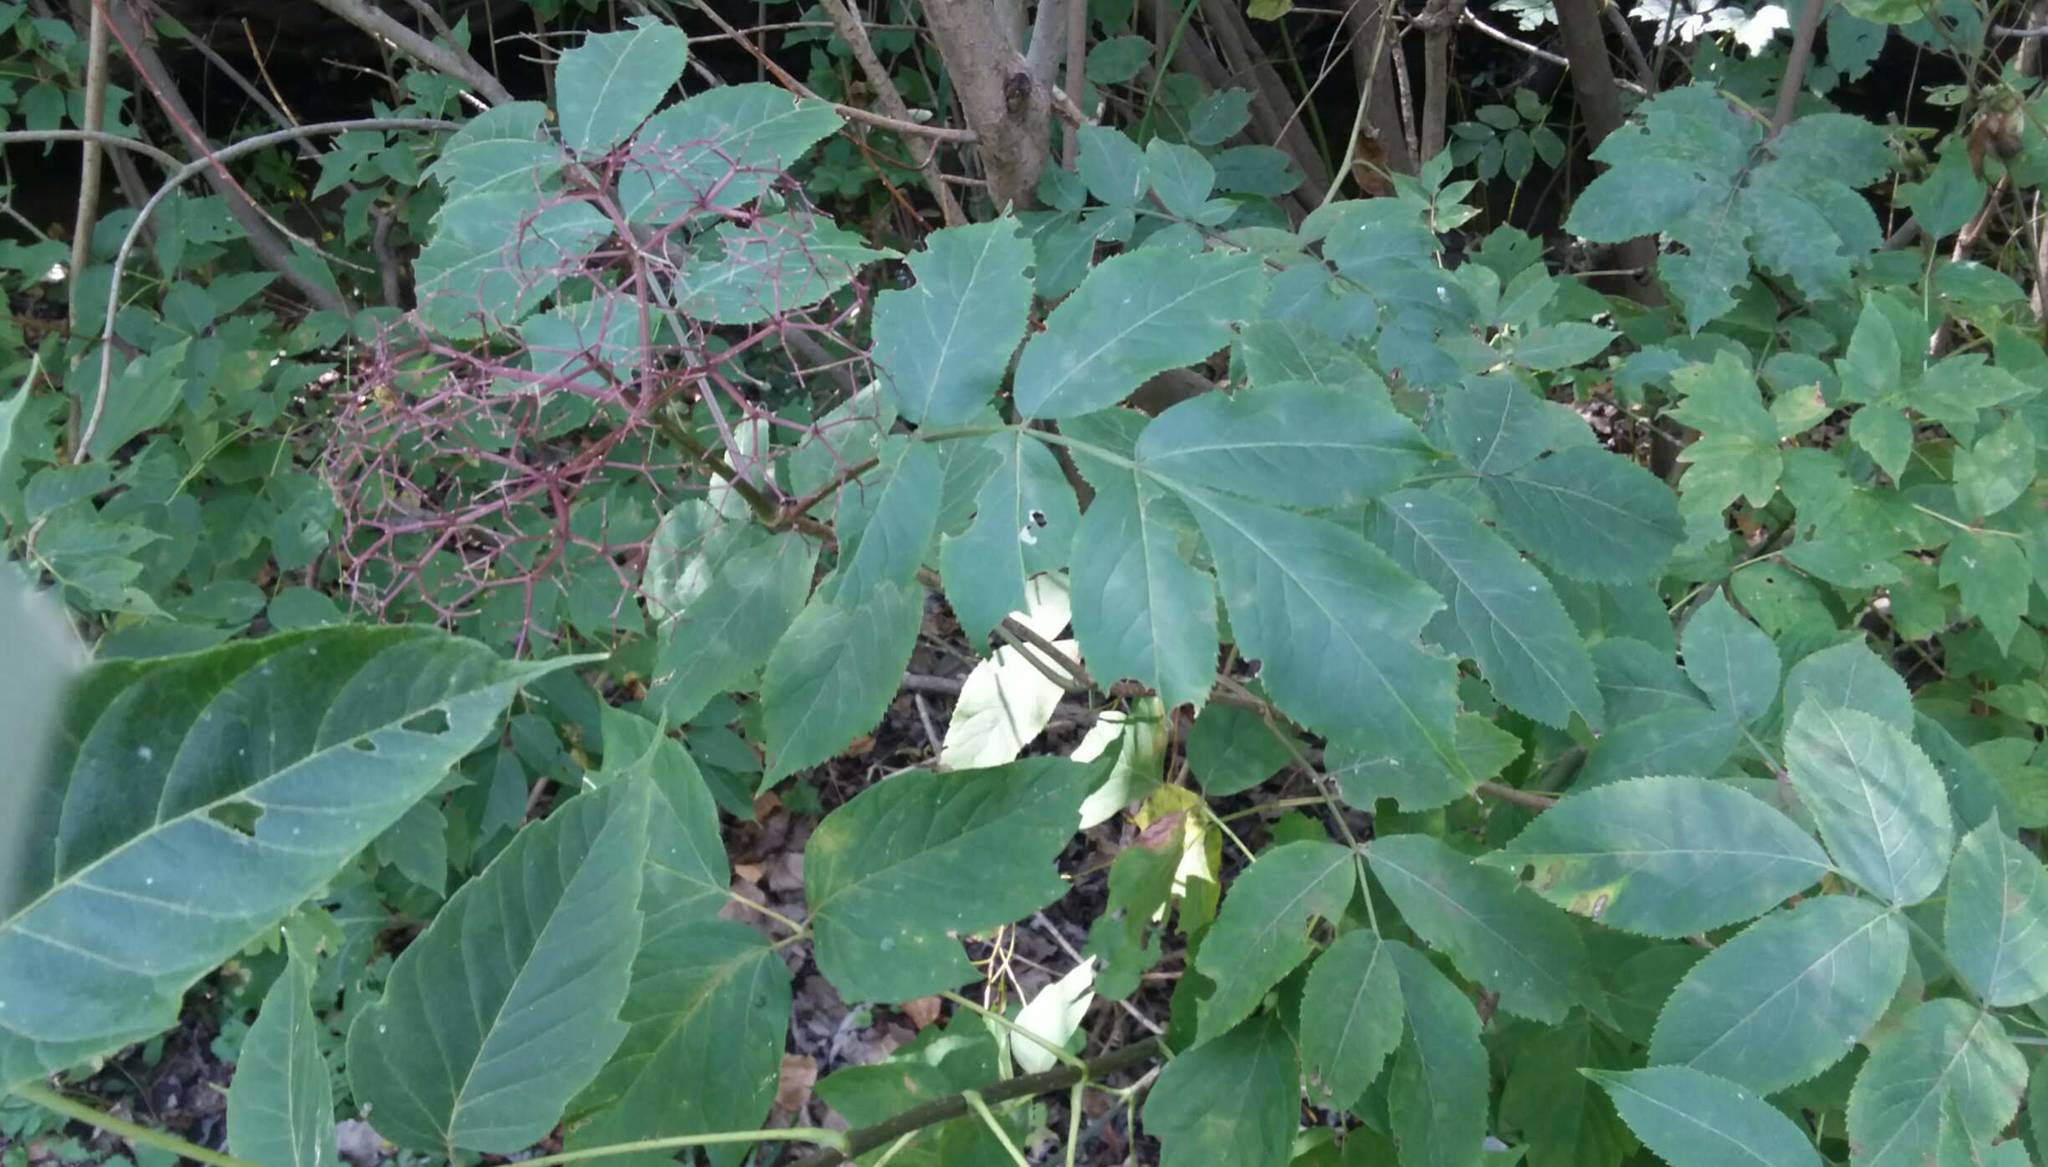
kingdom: Plantae
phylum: Tracheophyta
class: Magnoliopsida
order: Dipsacales
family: Viburnaceae
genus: Sambucus
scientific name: Sambucus canadensis
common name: American elder
